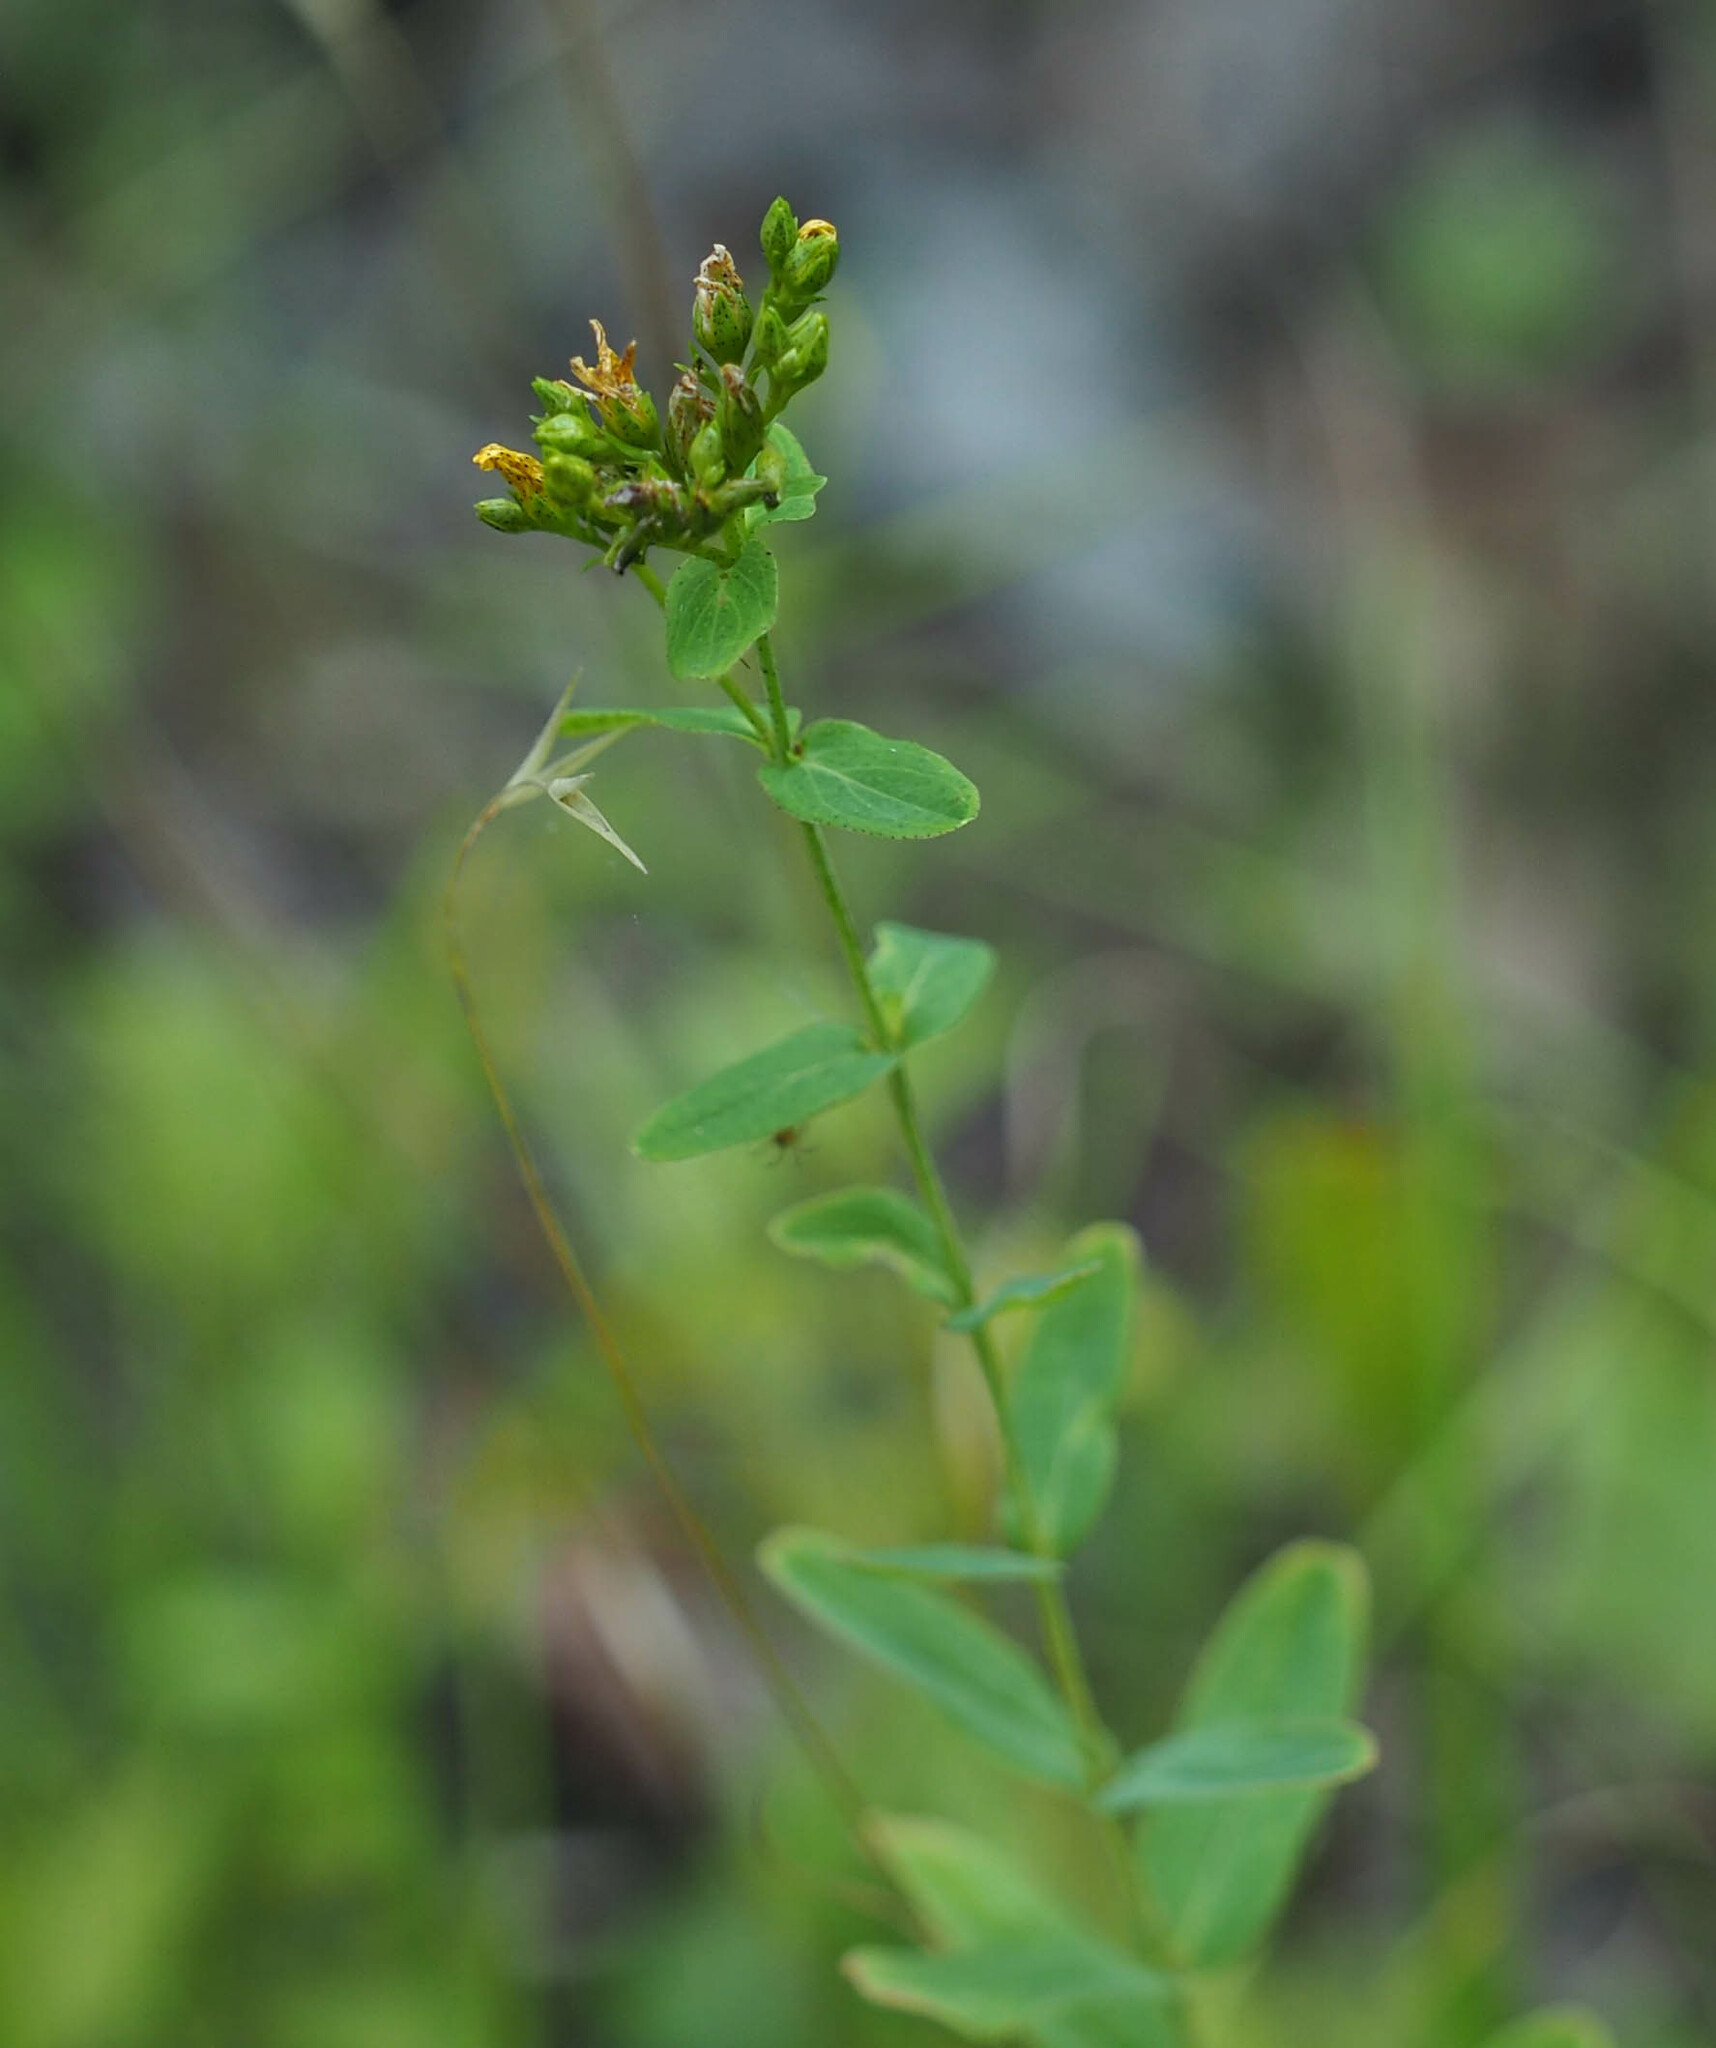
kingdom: Plantae
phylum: Tracheophyta
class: Magnoliopsida
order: Malpighiales
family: Hypericaceae
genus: Hypericum
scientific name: Hypericum punctatum
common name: Spotted st. john's-wort
